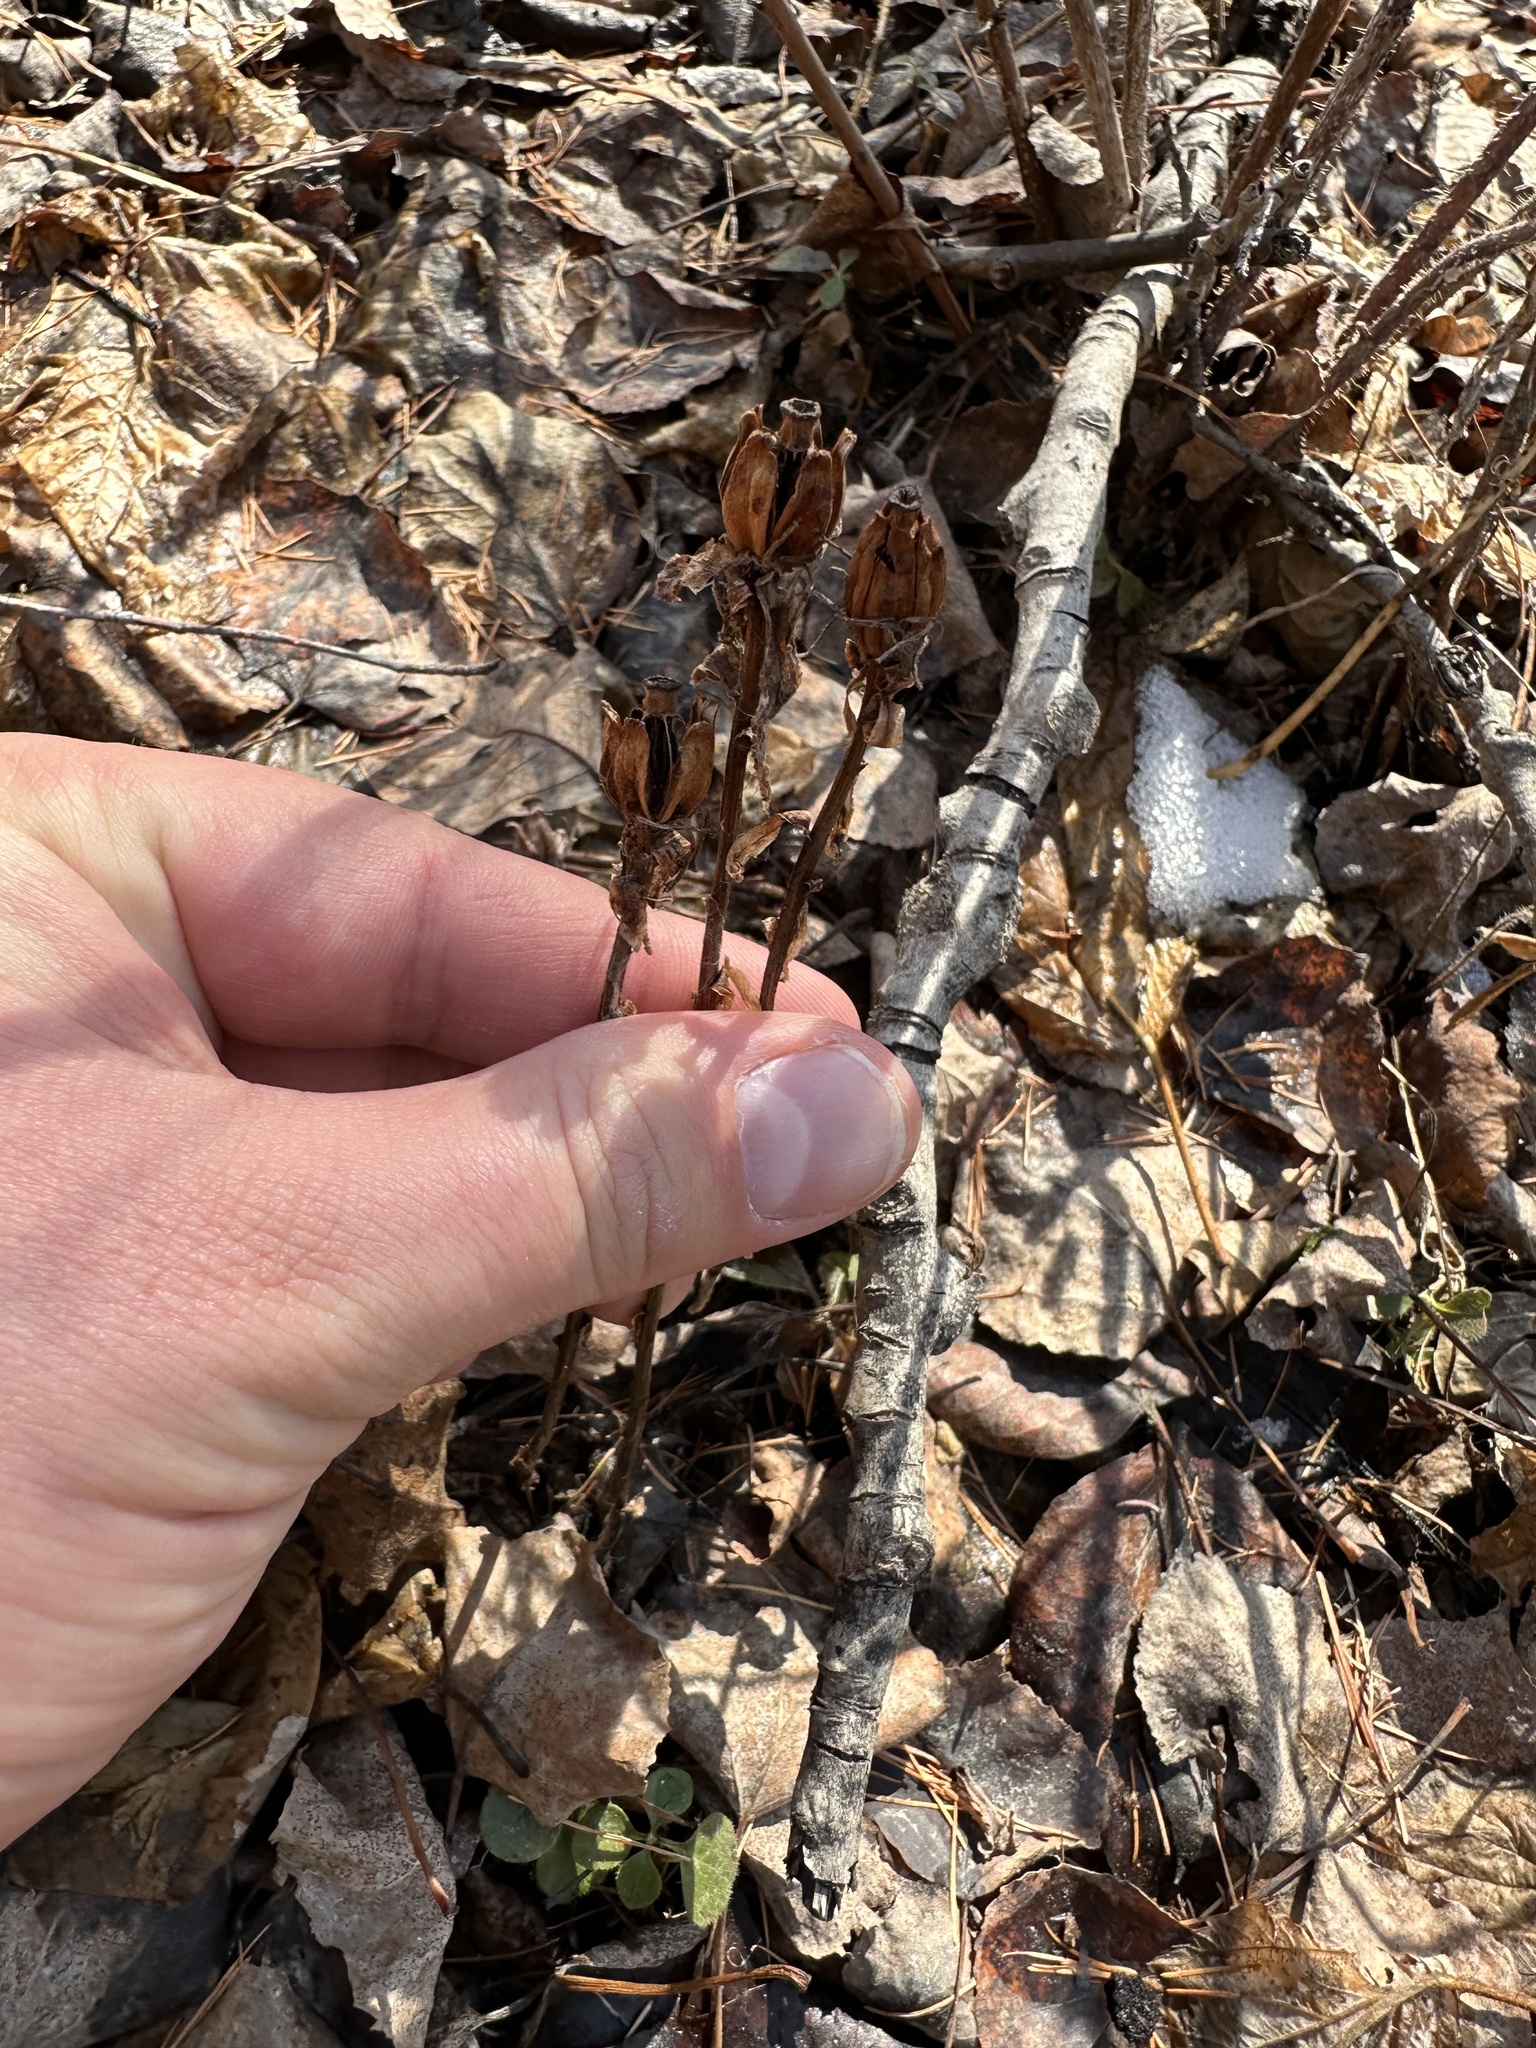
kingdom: Plantae
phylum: Tracheophyta
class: Magnoliopsida
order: Ericales
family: Ericaceae
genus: Monotropa
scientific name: Monotropa uniflora
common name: Convulsion root
